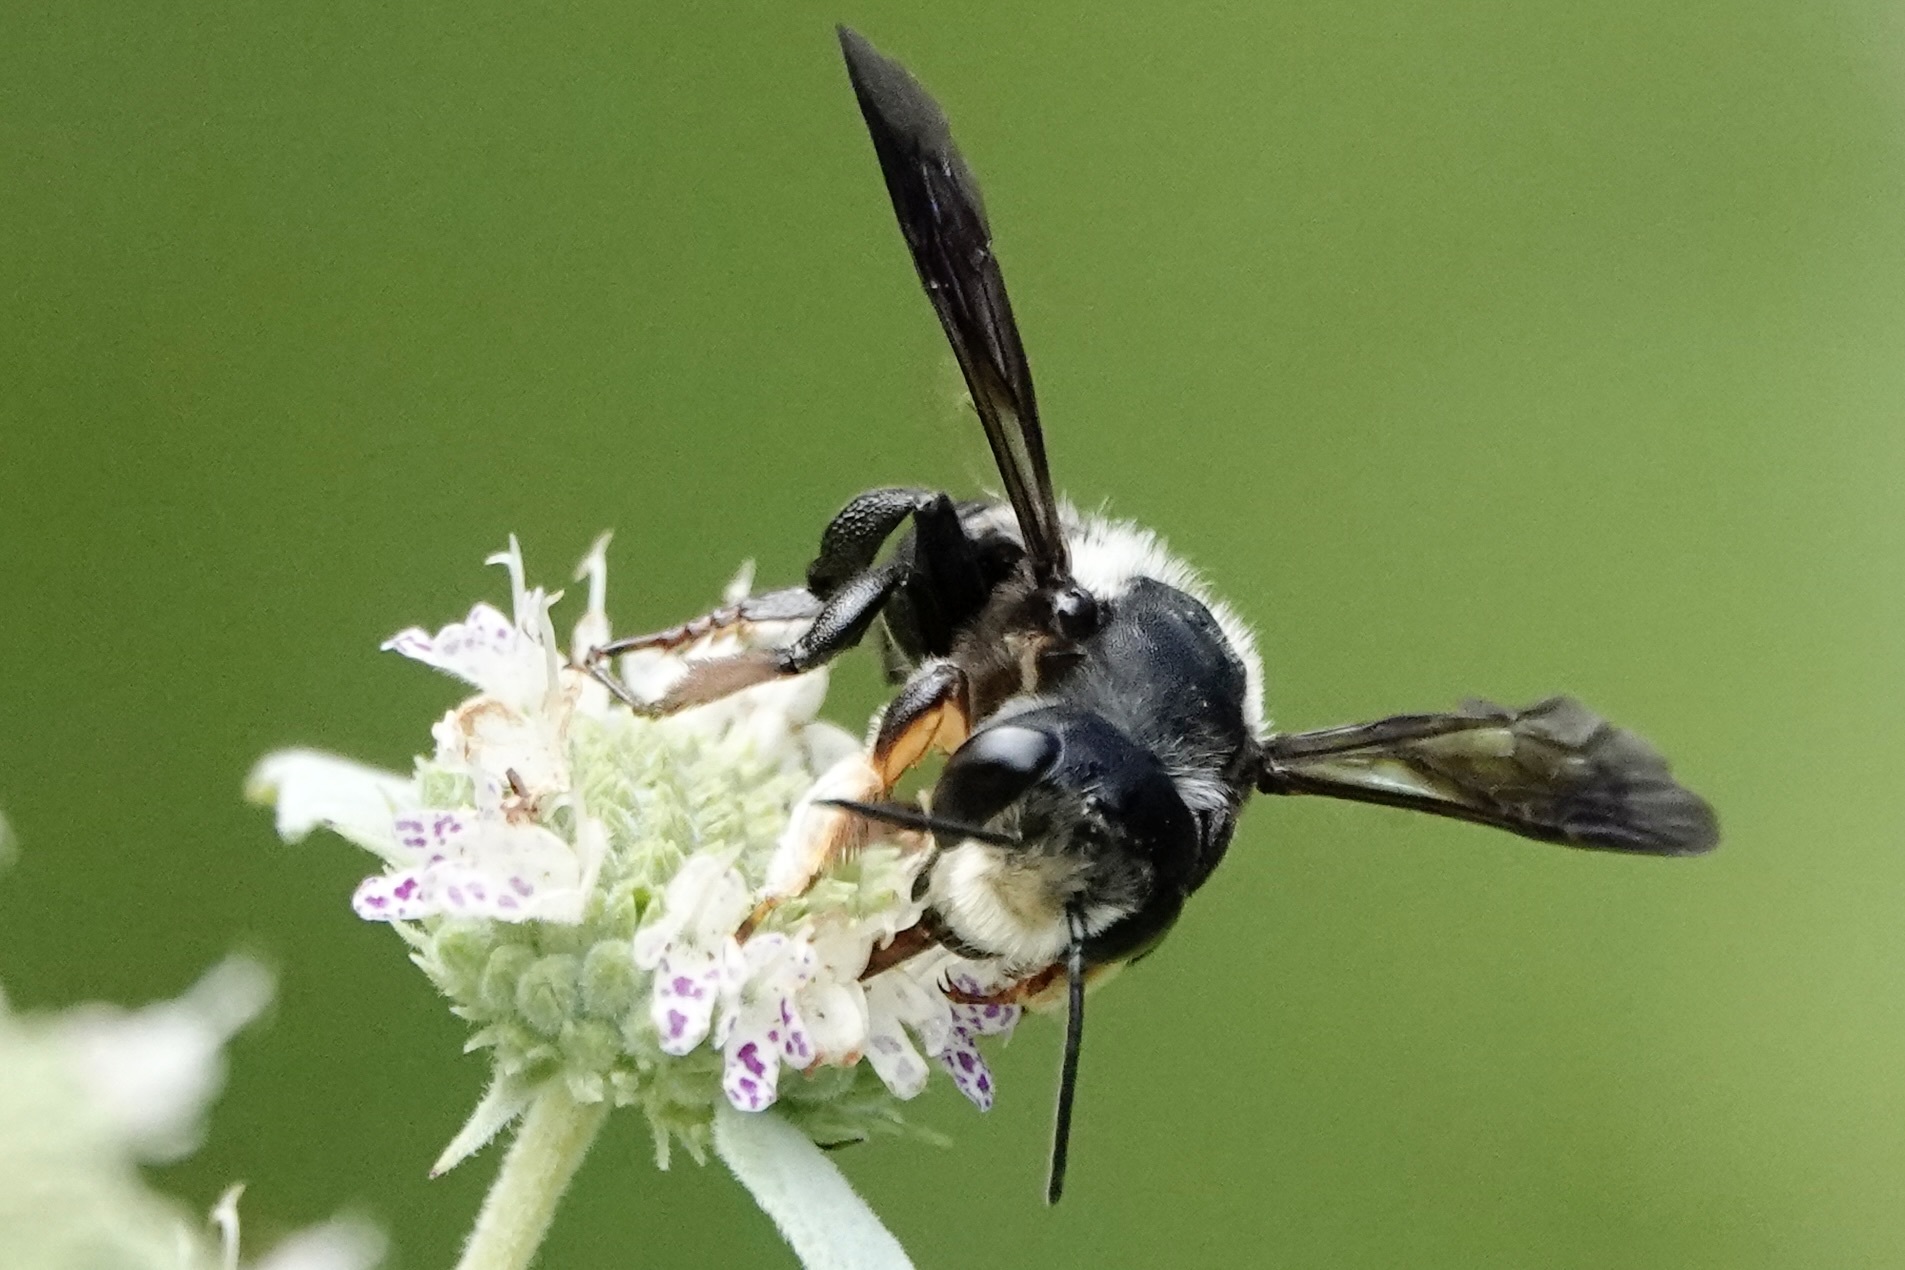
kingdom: Animalia
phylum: Arthropoda
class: Insecta
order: Hymenoptera
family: Megachilidae
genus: Megachile
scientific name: Megachile xylocopoides
